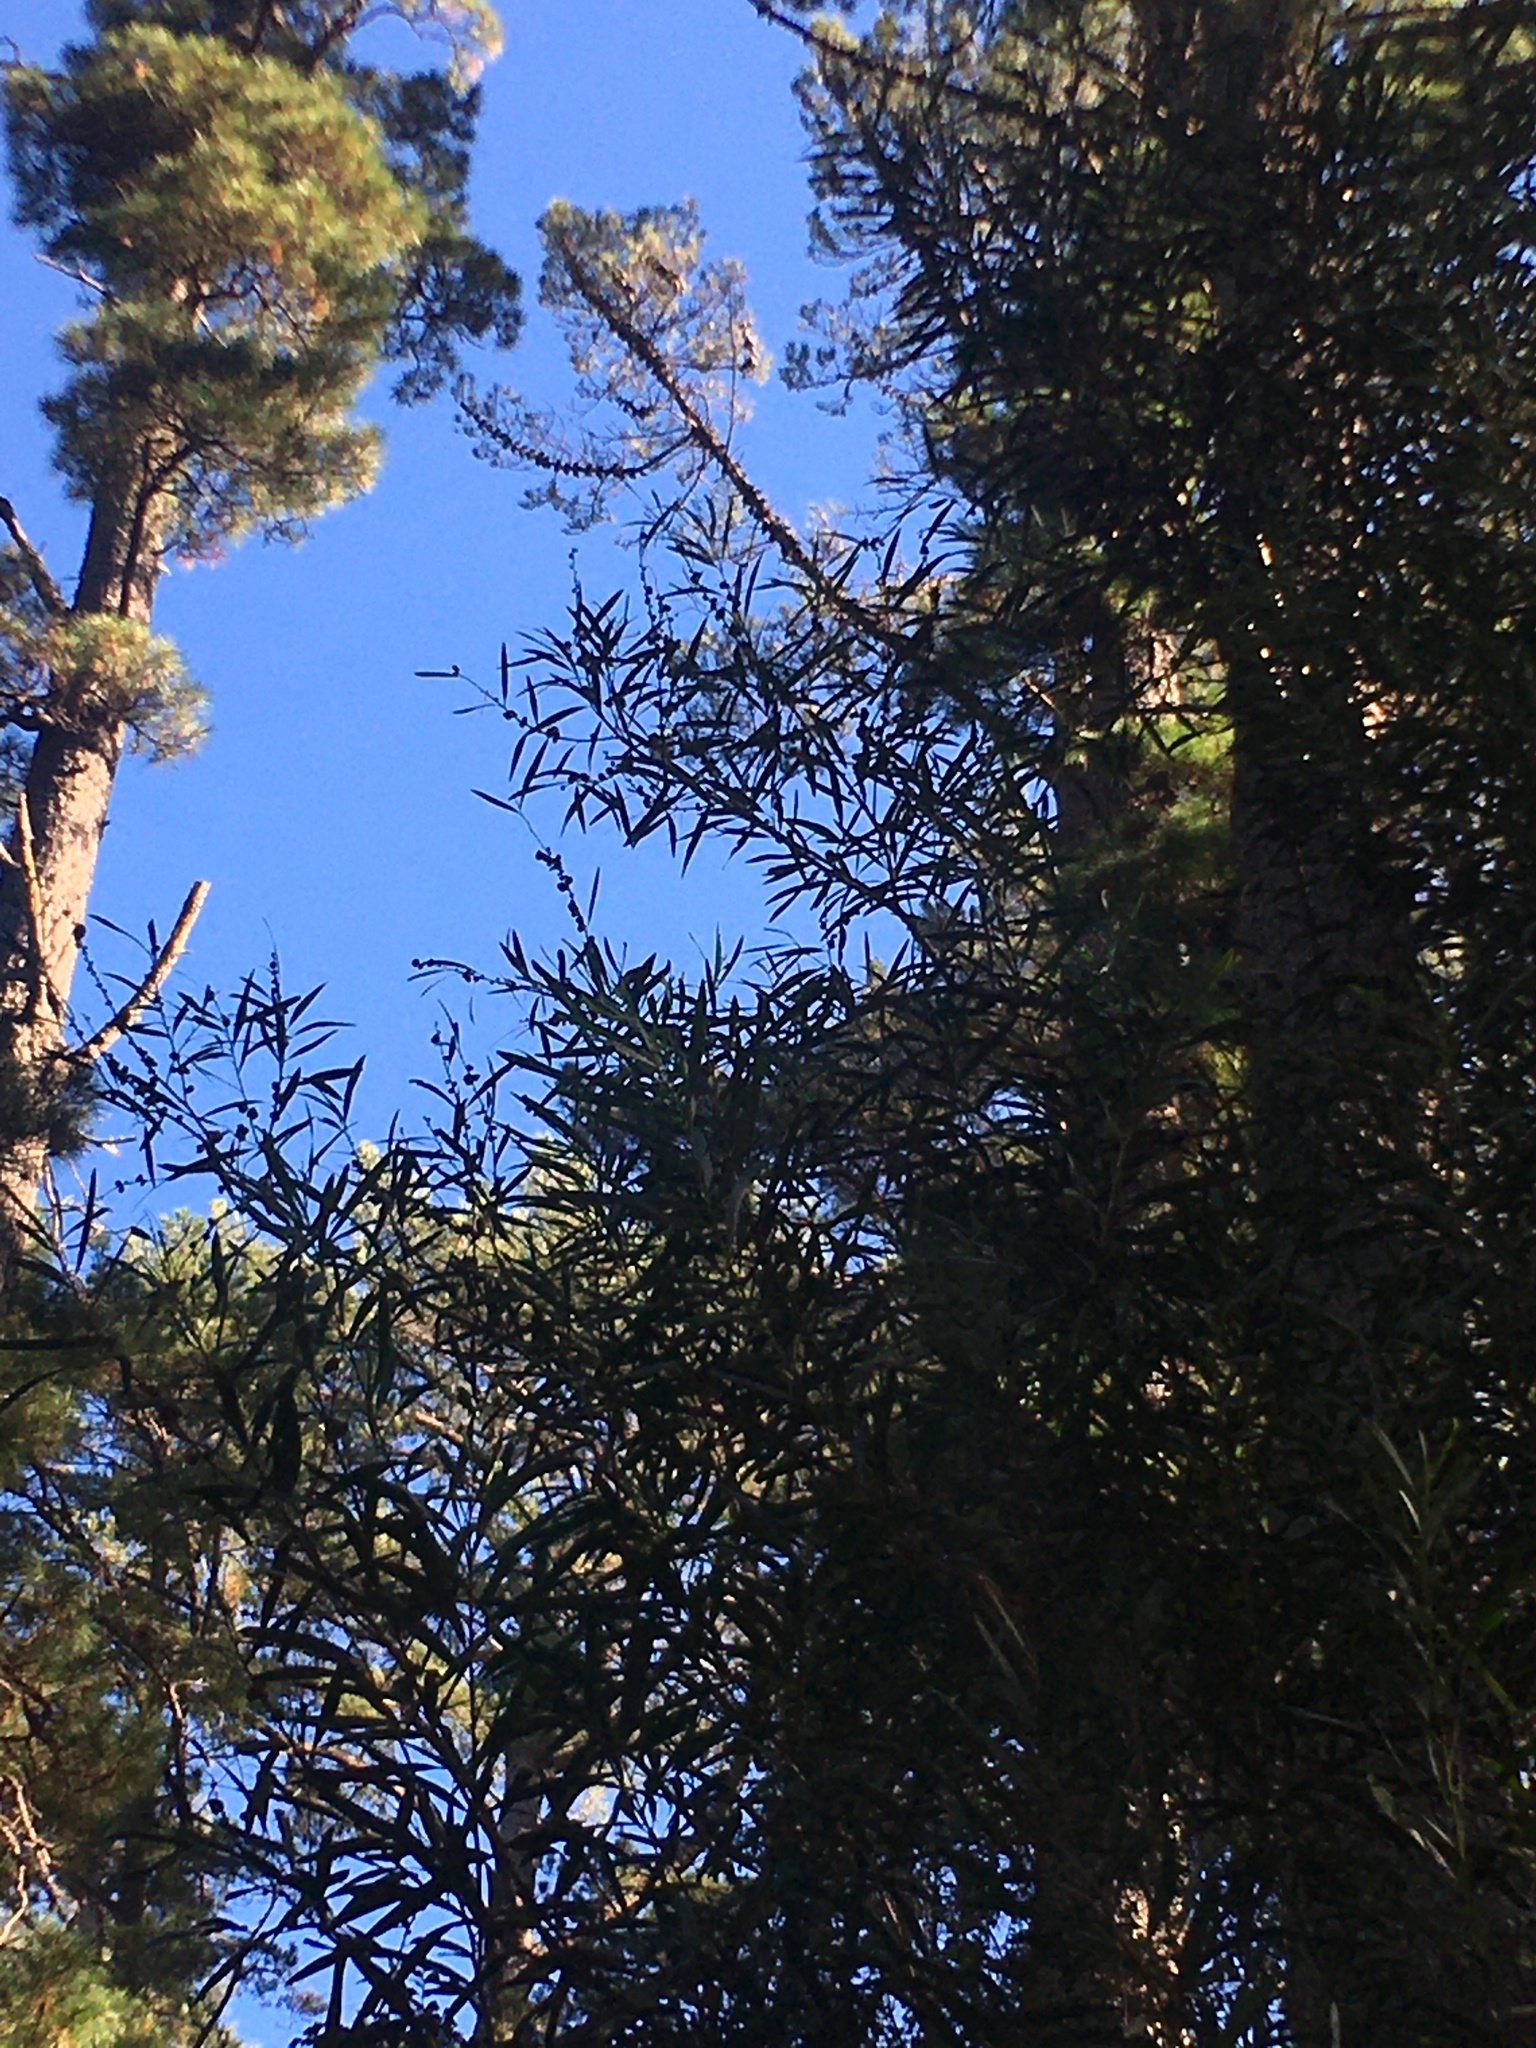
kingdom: Plantae
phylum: Tracheophyta
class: Magnoliopsida
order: Fabales
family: Fabaceae
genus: Acacia
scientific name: Acacia longifolia
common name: Sydney golden wattle
